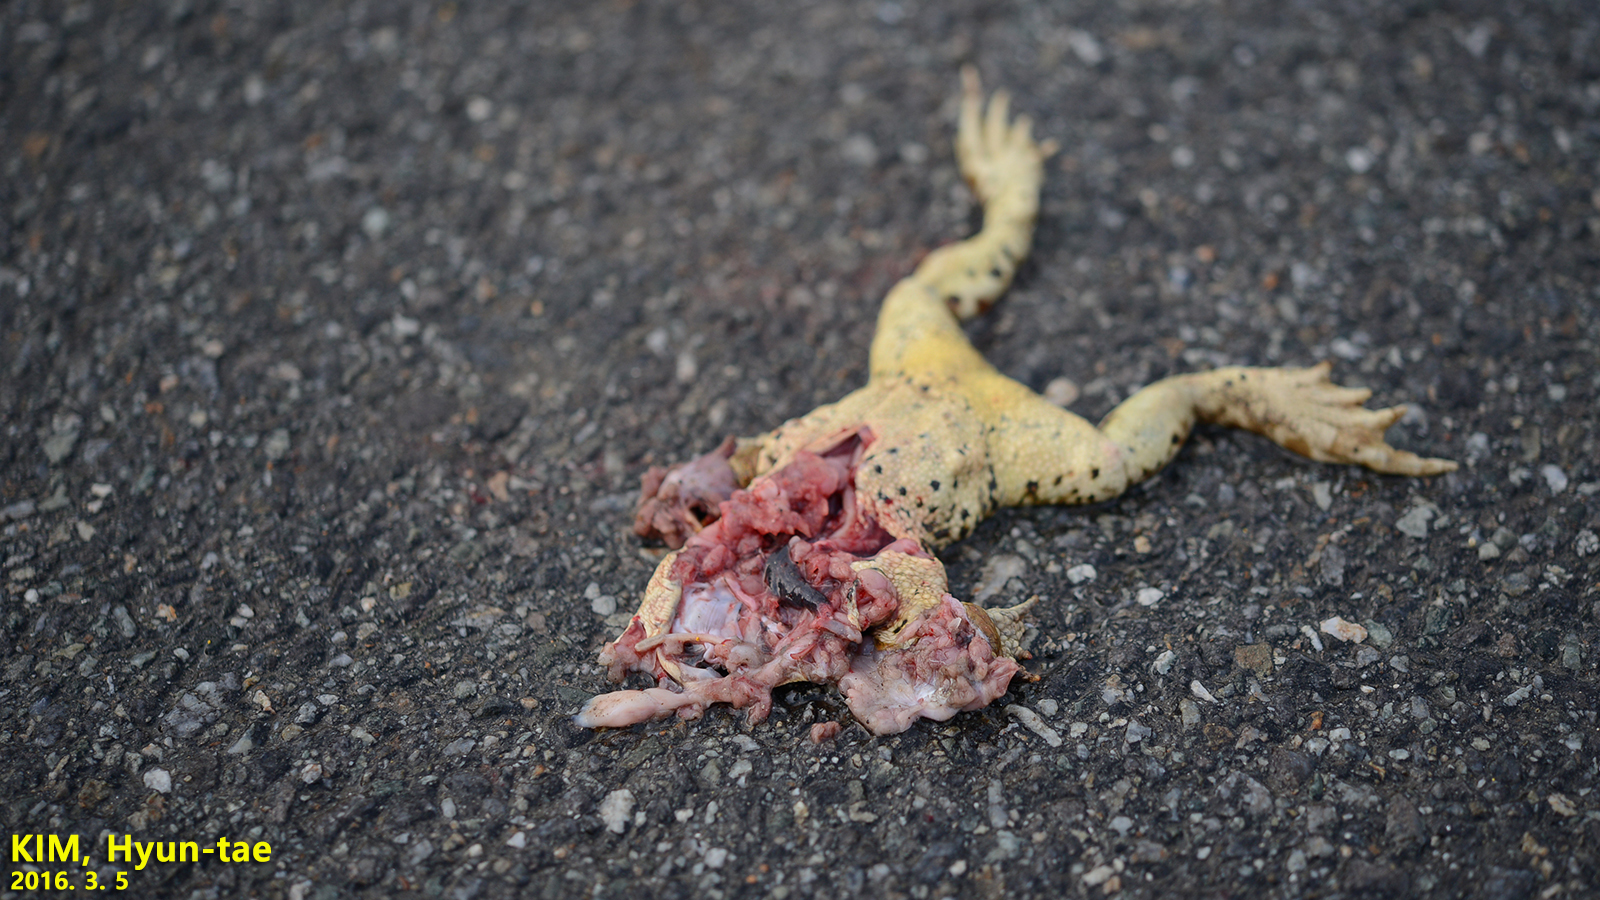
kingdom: Animalia
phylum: Chordata
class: Amphibia
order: Anura
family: Bufonidae
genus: Bufo
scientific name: Bufo gargarizans
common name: Asiatic toad
